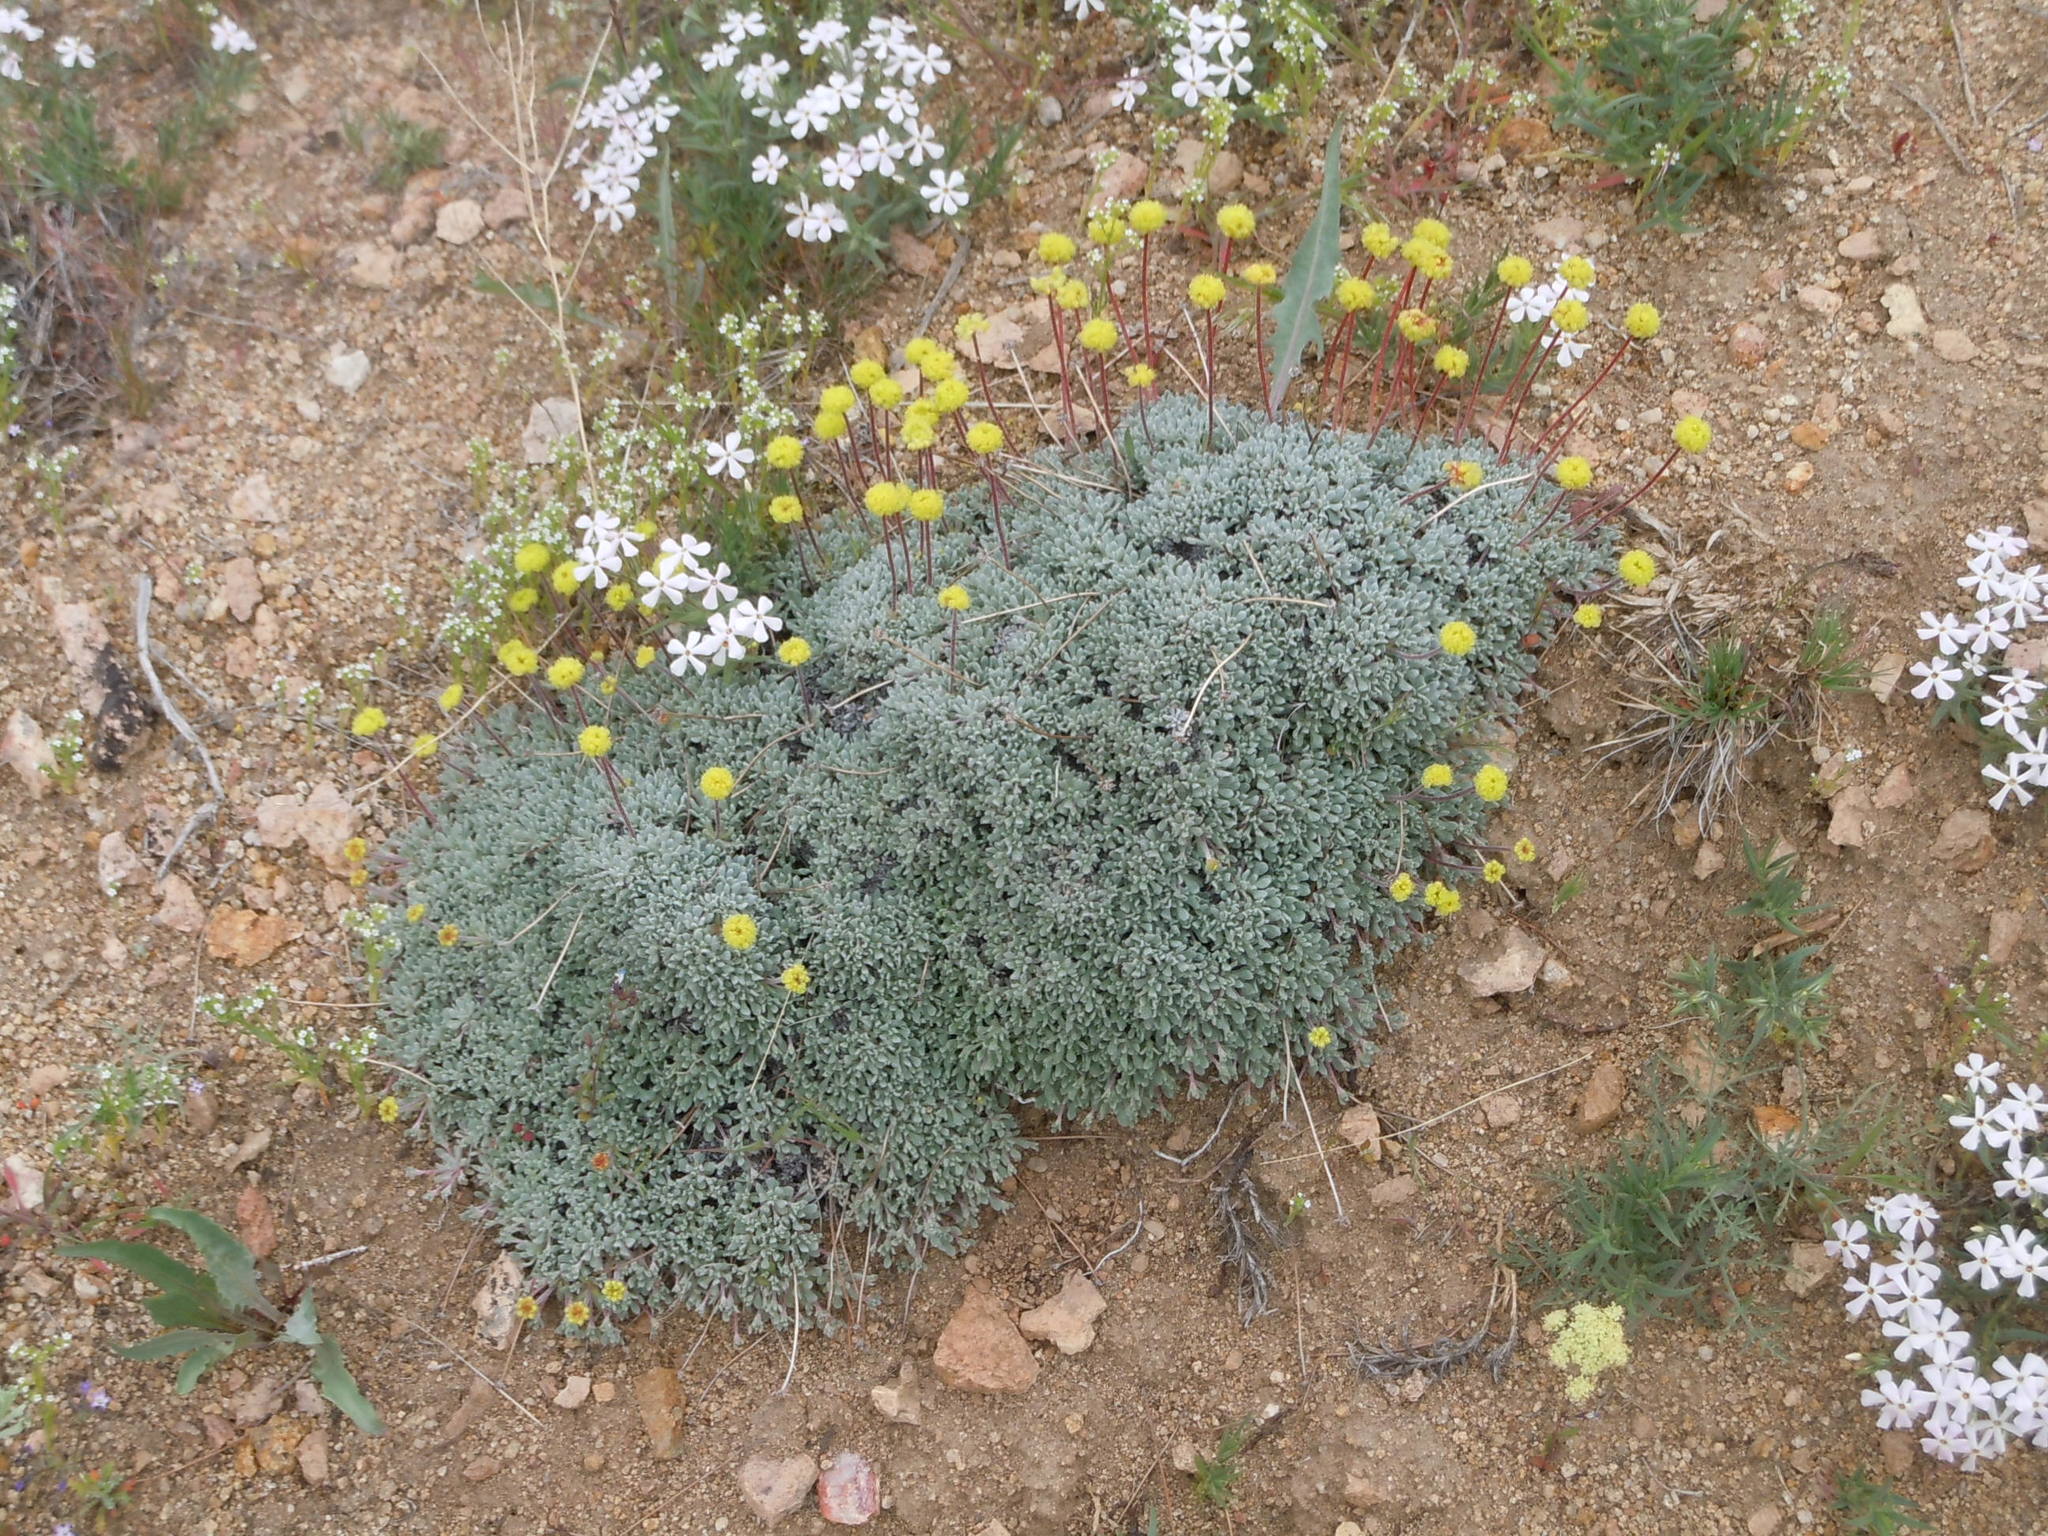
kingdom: Plantae
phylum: Tracheophyta
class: Magnoliopsida
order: Caryophyllales
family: Polygonaceae
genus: Eriogonum
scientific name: Eriogonum caespitosum
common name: Matted wild buckwheat
